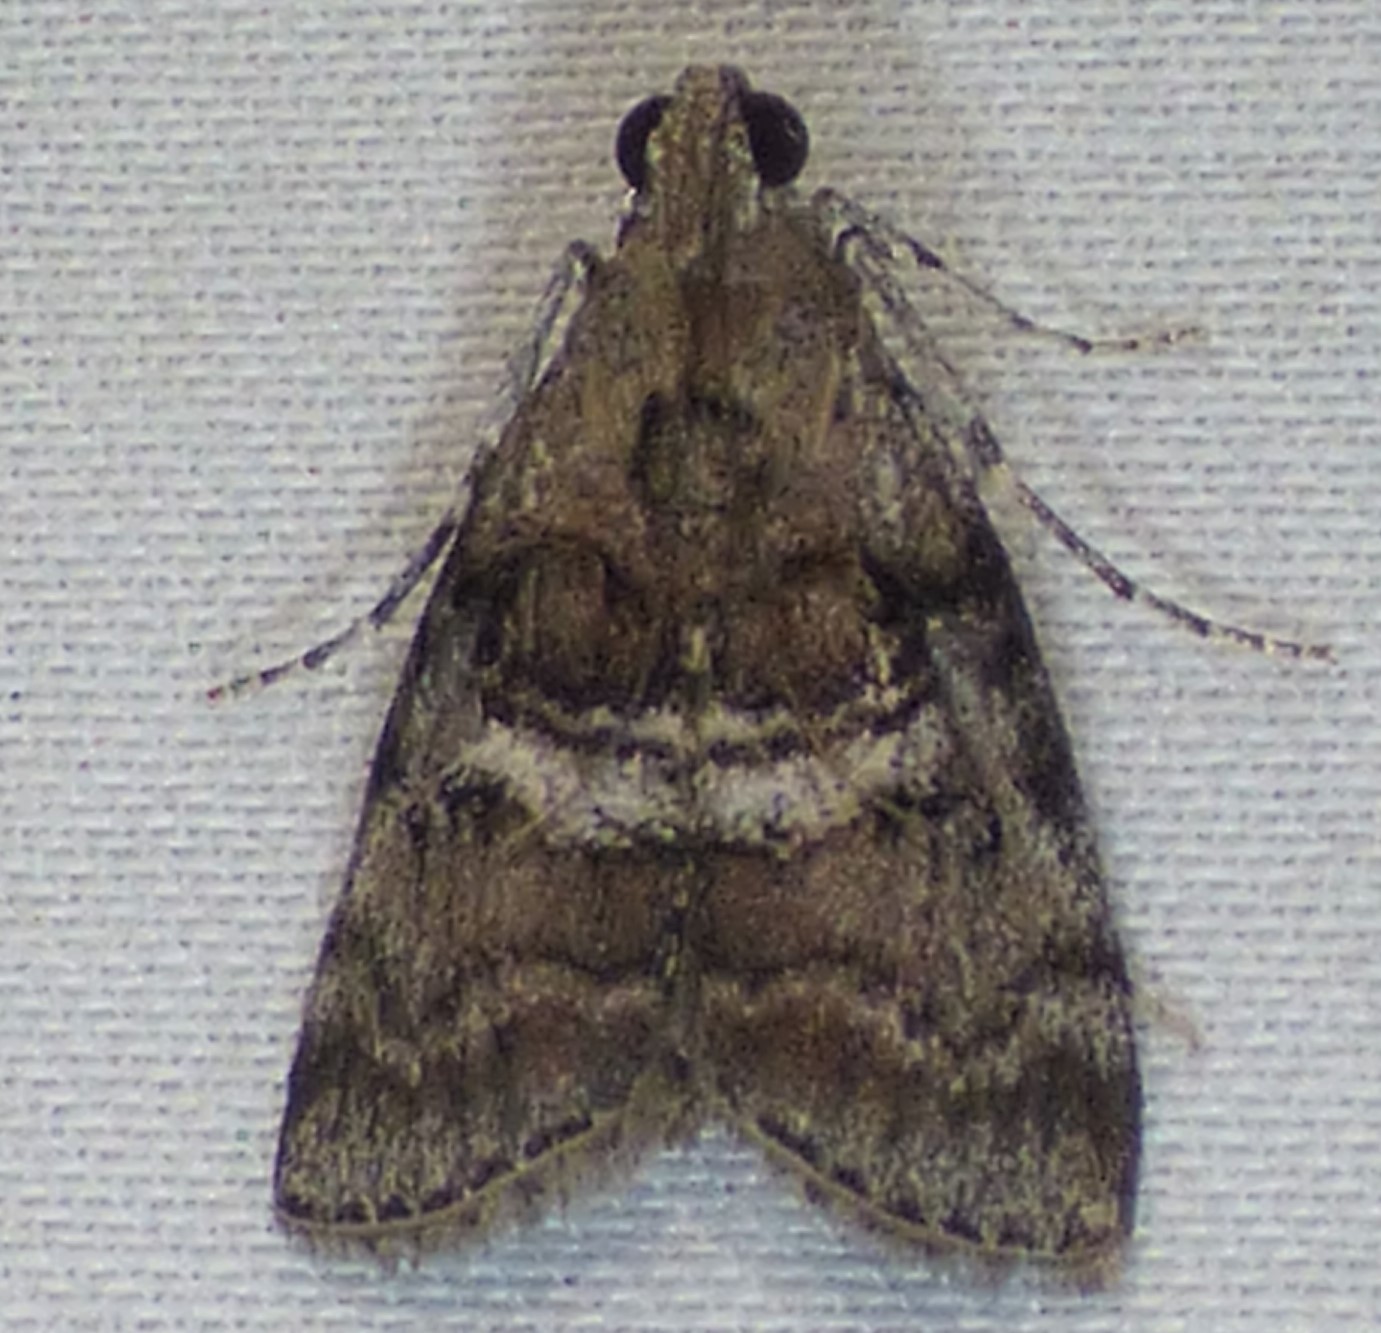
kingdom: Animalia
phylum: Arthropoda
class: Insecta
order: Lepidoptera
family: Pyralidae
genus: Pococera
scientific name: Pococera asperatella
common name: Maple webworm moth
